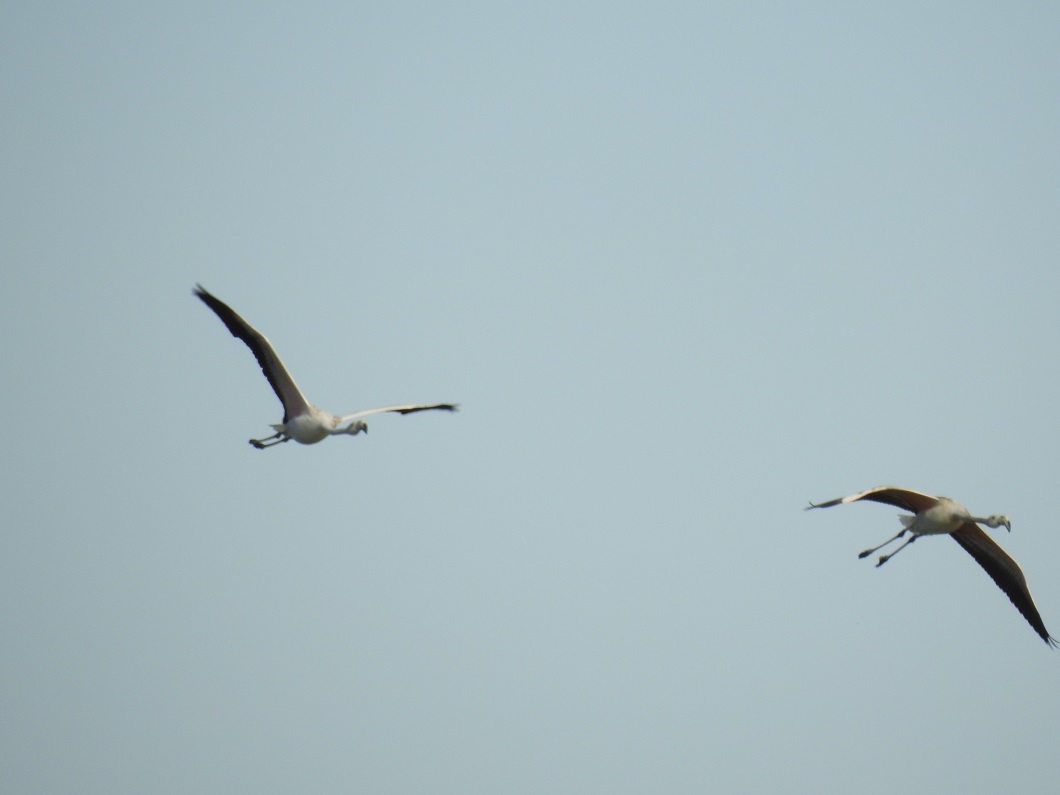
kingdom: Animalia
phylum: Chordata
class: Aves
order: Phoenicopteriformes
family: Phoenicopteridae
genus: Phoenicopterus
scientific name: Phoenicopterus roseus
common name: Greater flamingo
